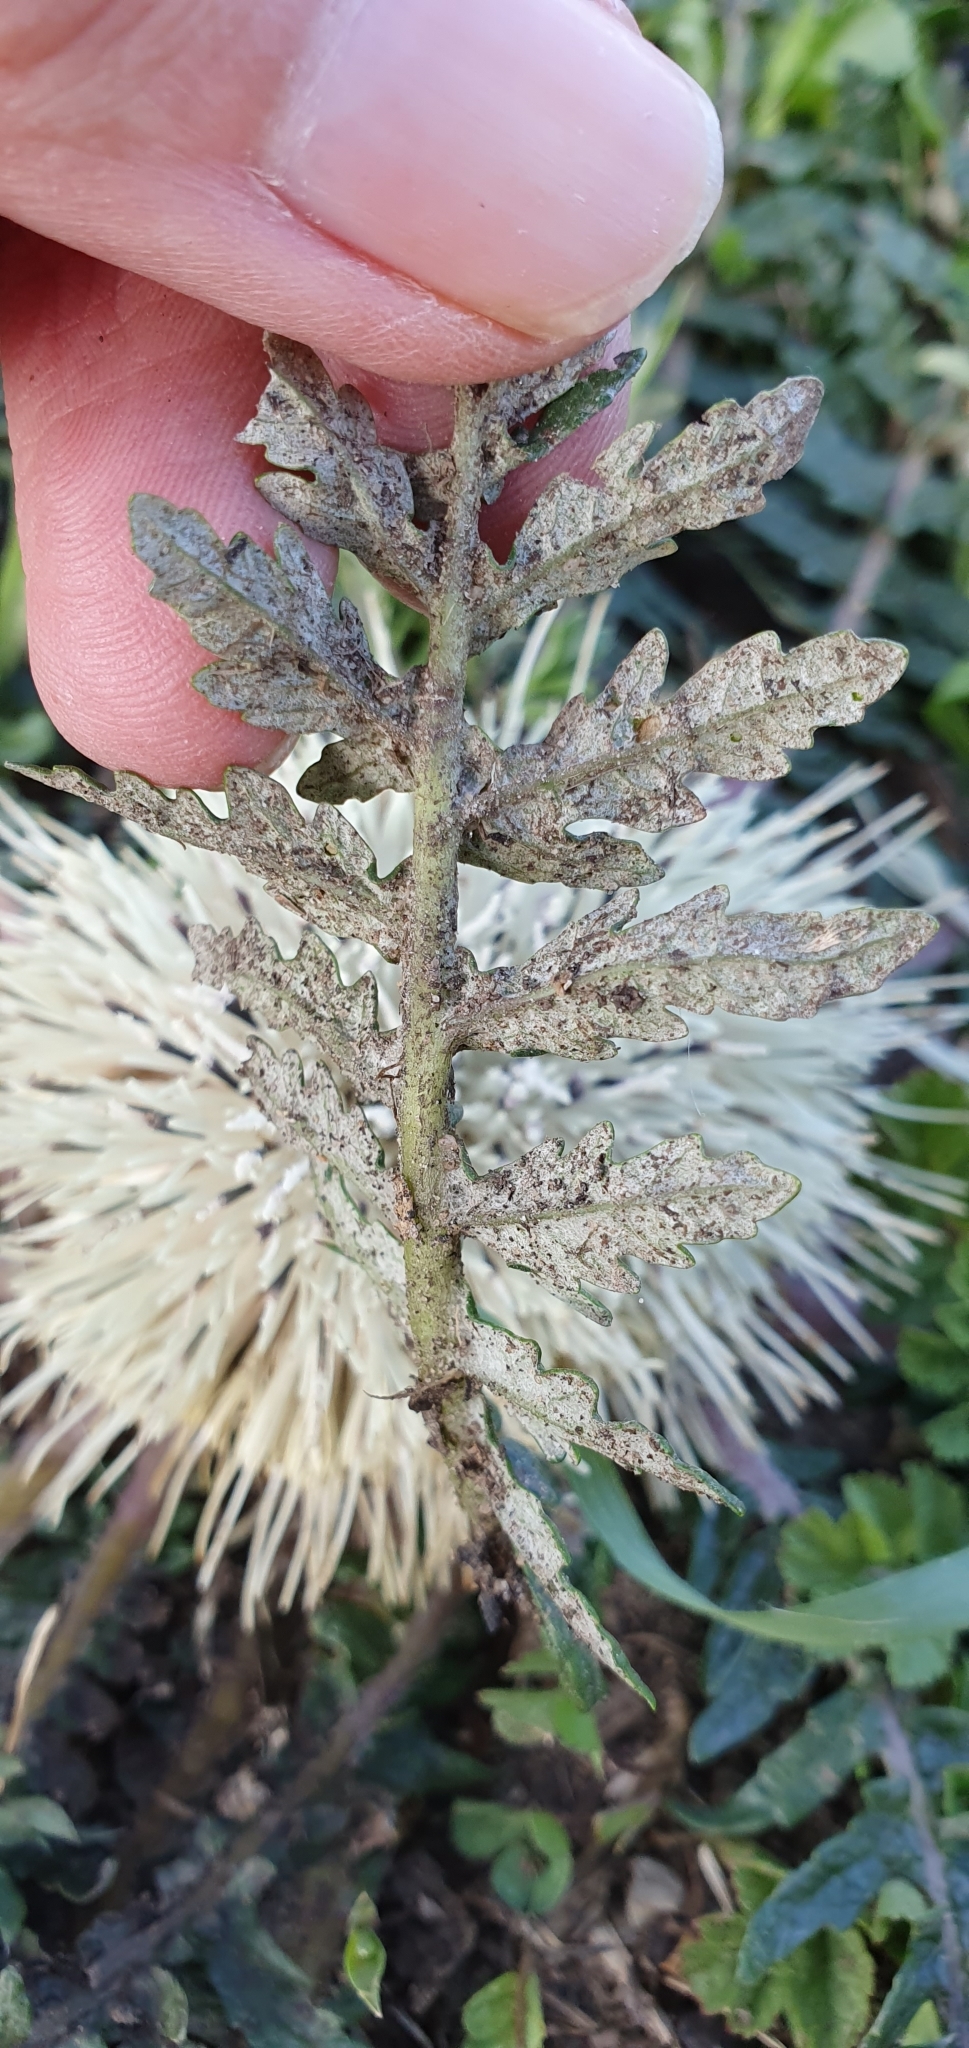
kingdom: Plantae
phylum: Tracheophyta
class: Magnoliopsida
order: Asterales
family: Asteraceae
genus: Leuzea
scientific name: Leuzea acaulis
